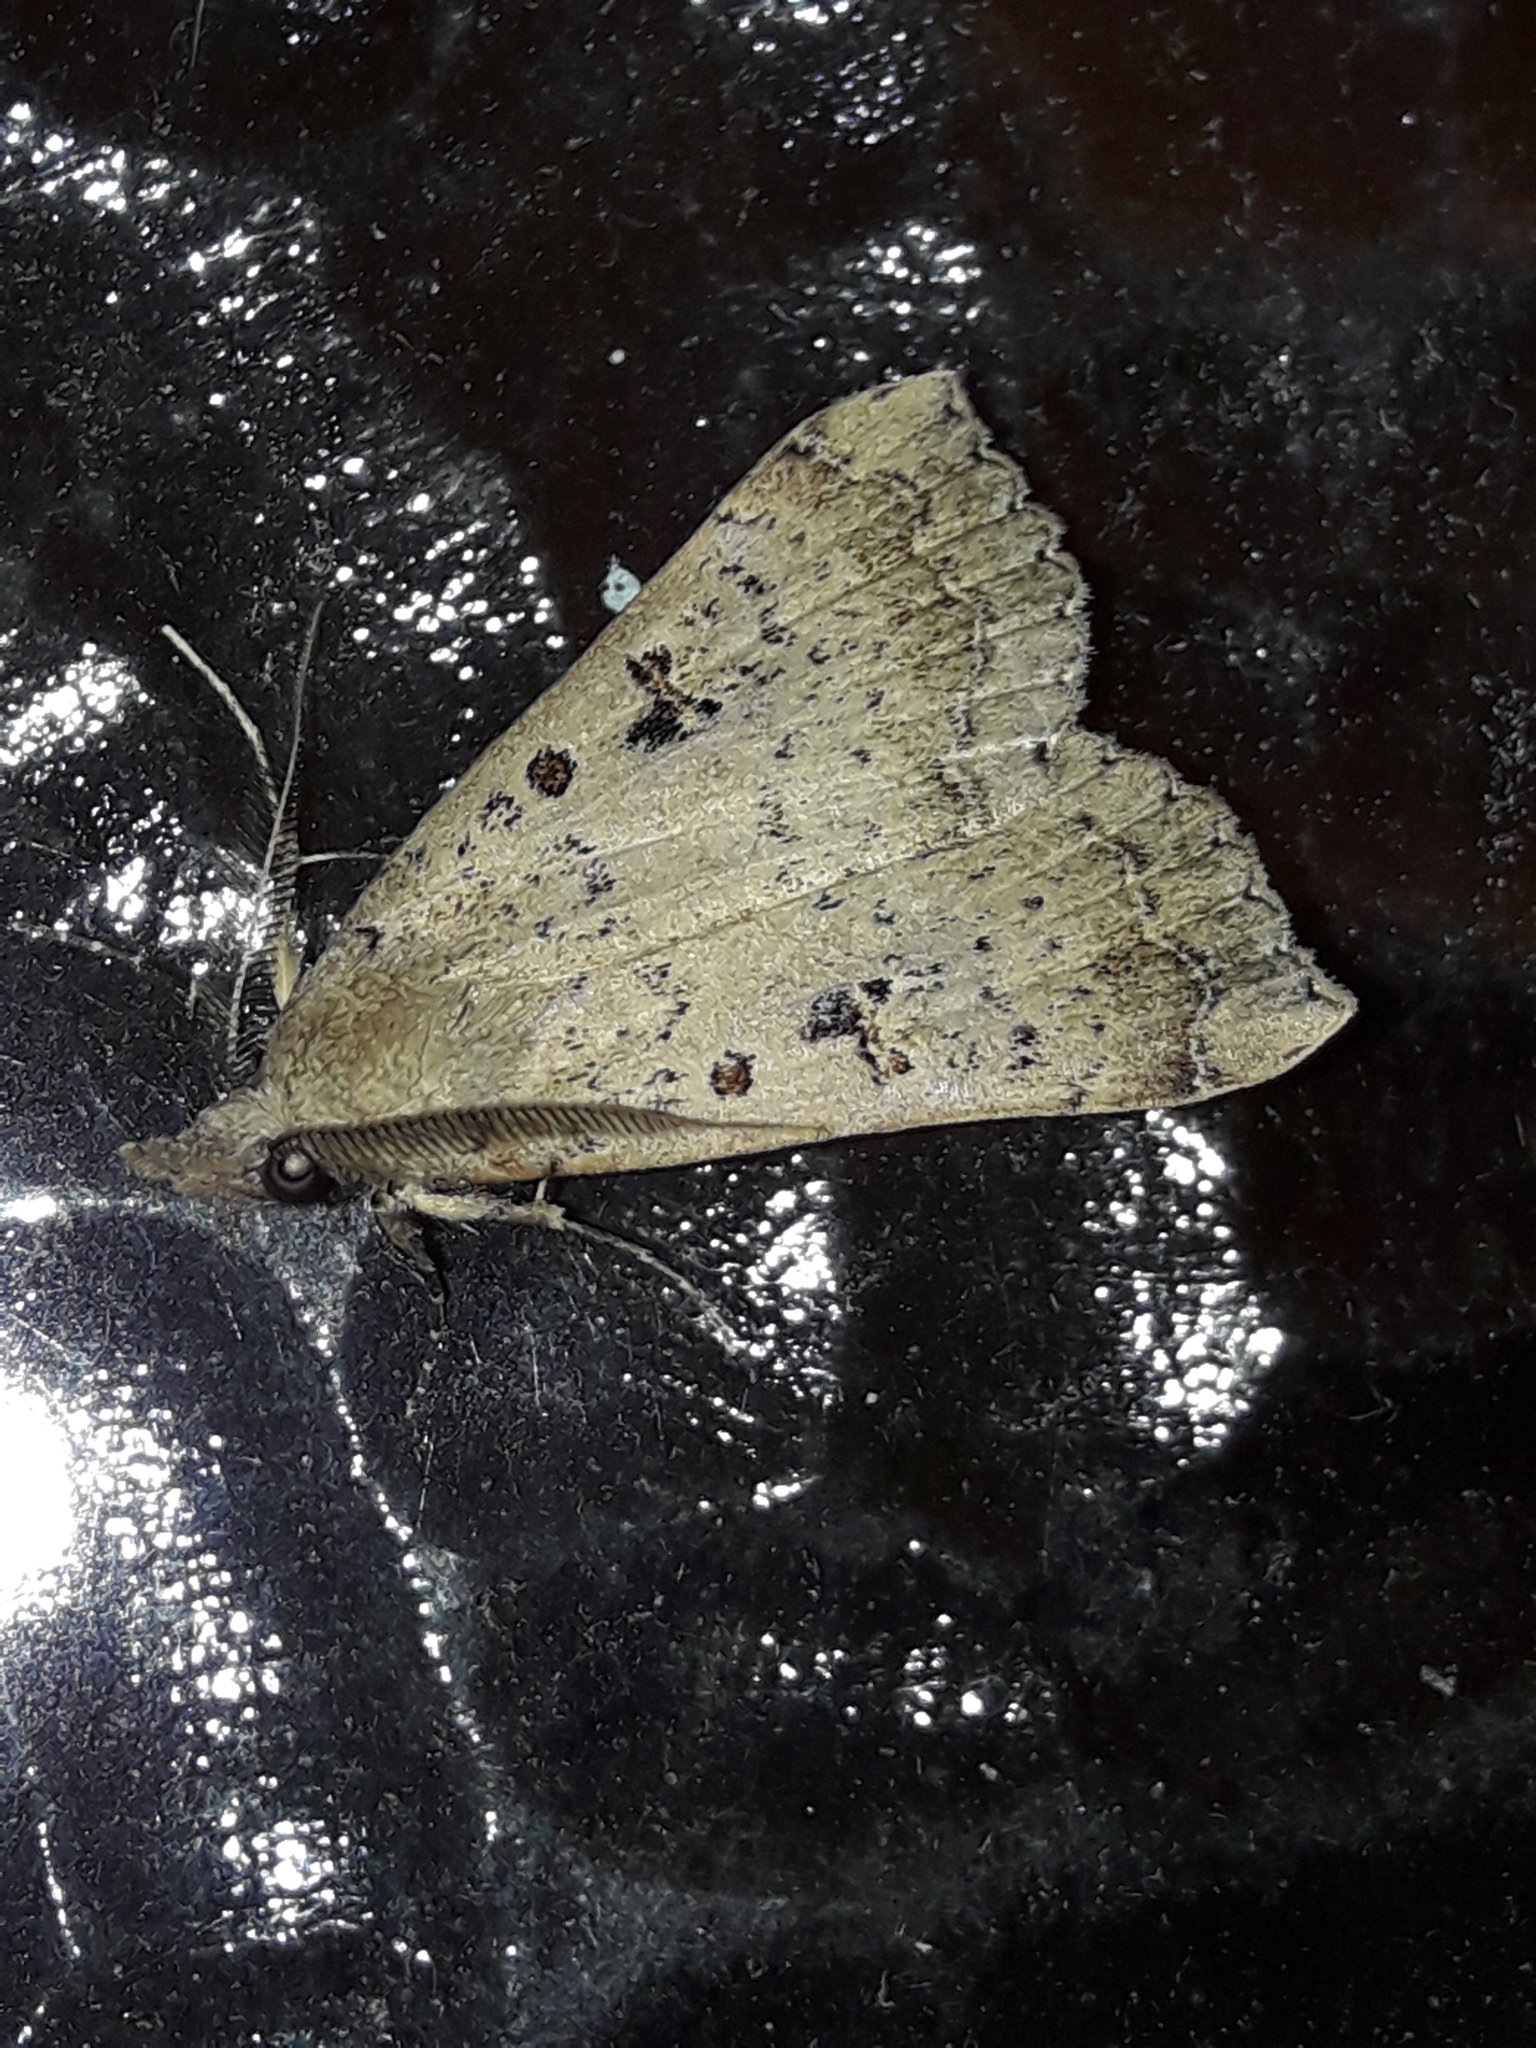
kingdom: Animalia
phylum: Arthropoda
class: Insecta
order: Lepidoptera
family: Erebidae
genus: Rhapsa
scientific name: Rhapsa scotosialis
